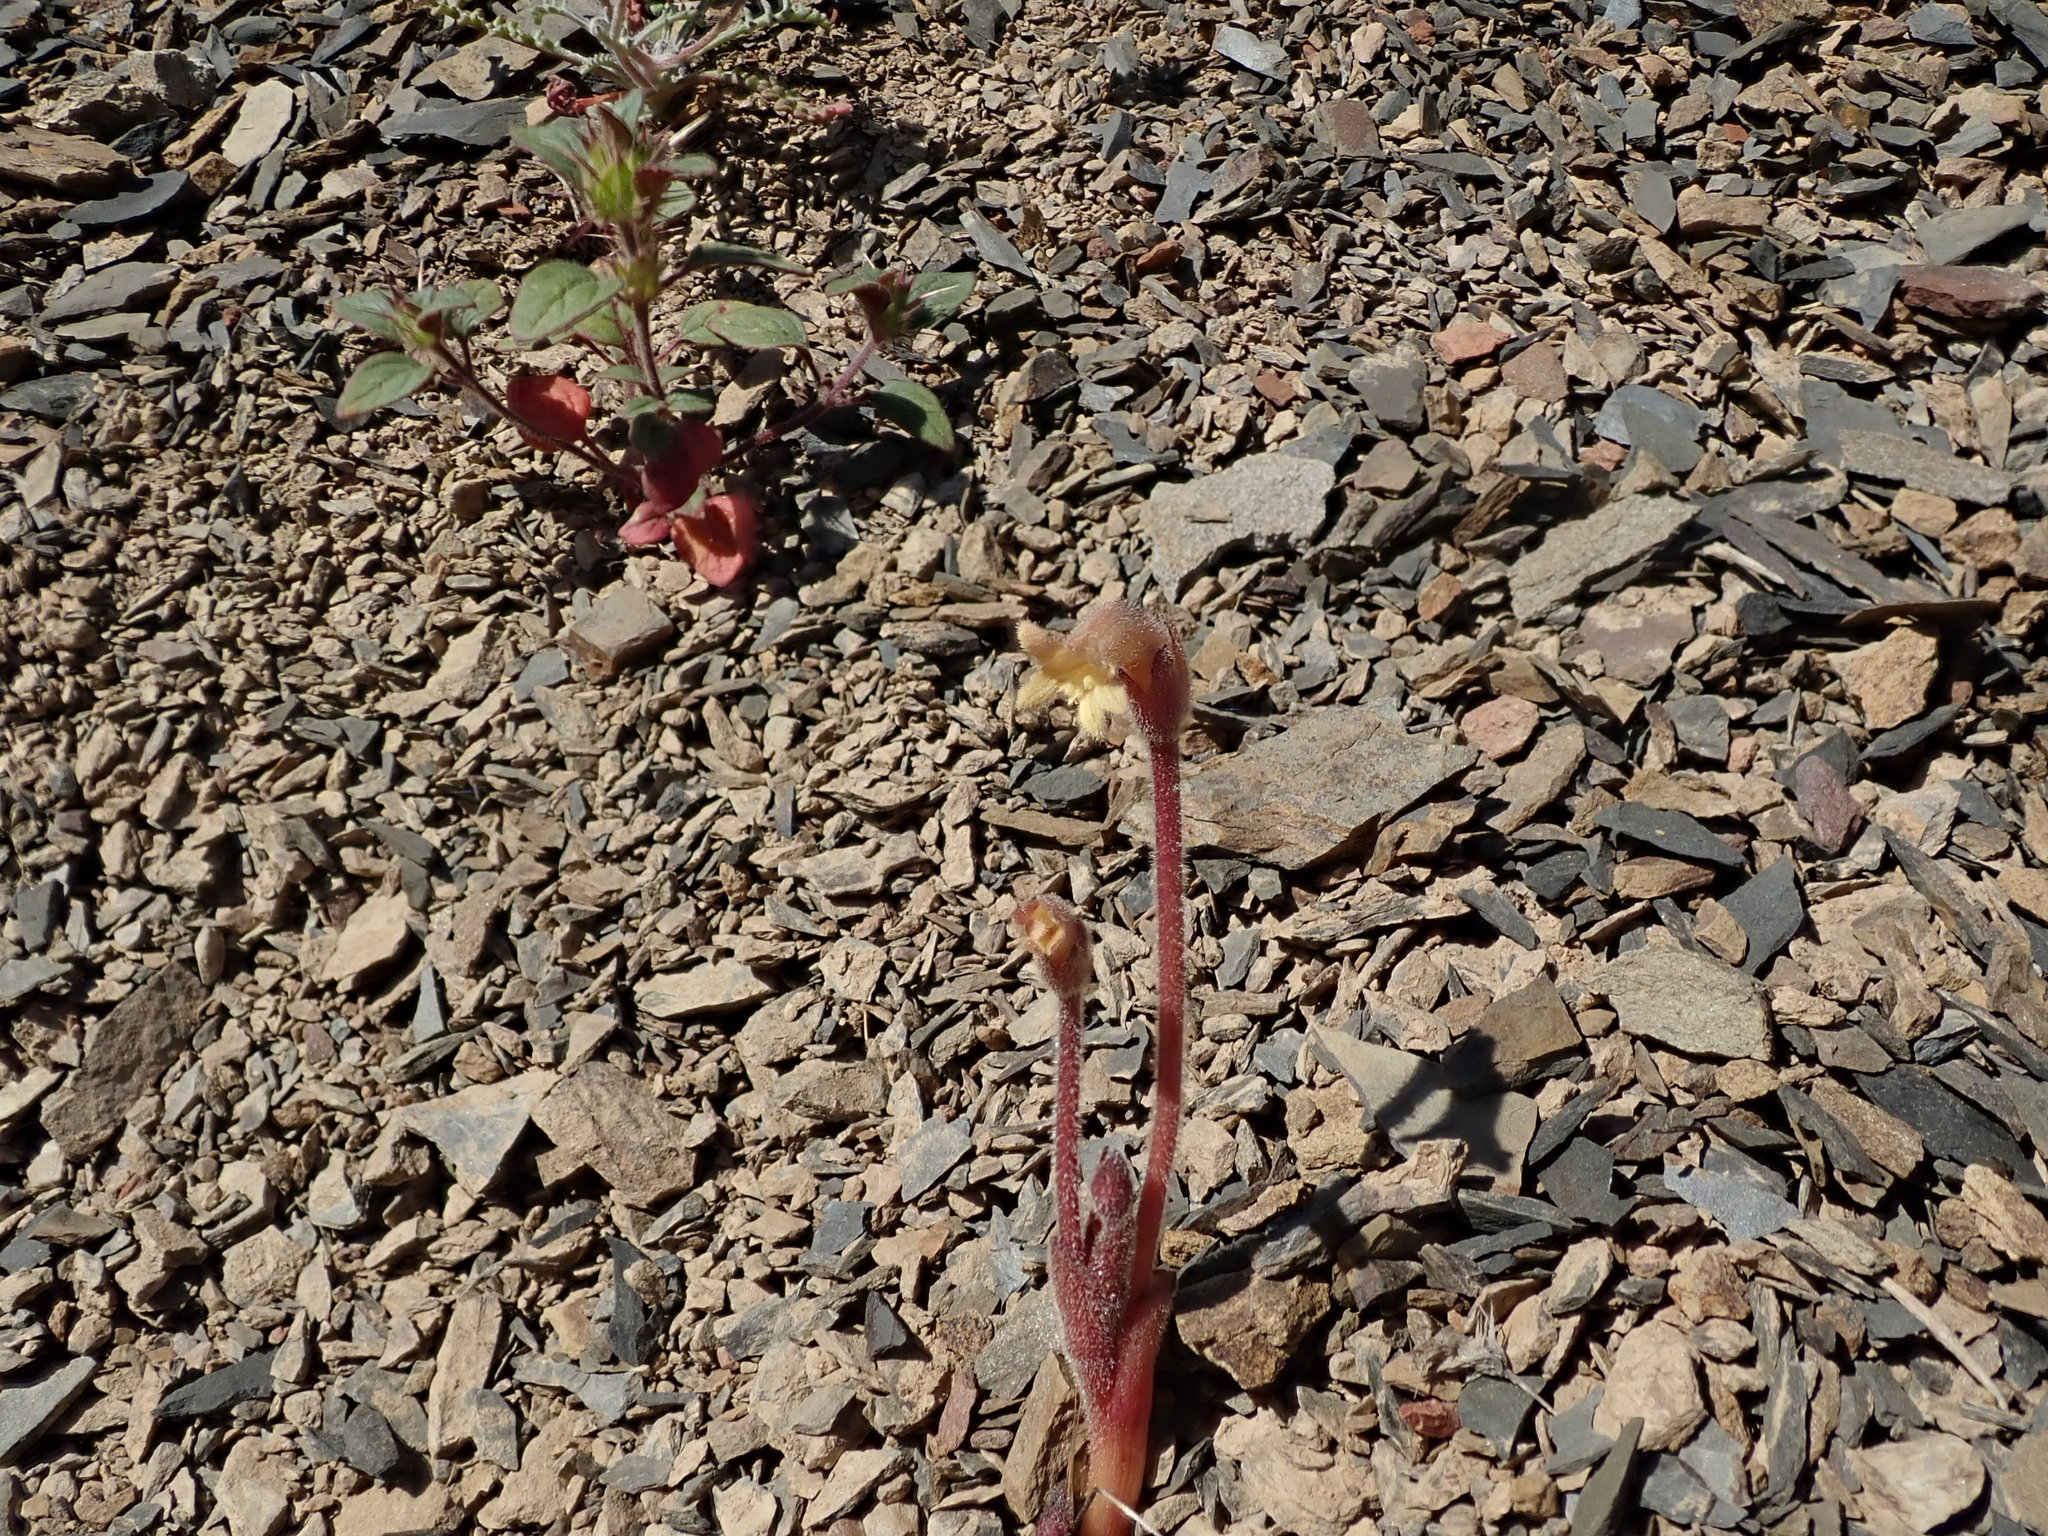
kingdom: Plantae
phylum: Tracheophyta
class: Magnoliopsida
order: Lamiales
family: Orobanchaceae
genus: Aphyllon
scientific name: Aphyllon franciscanum
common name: San francisco broomrape
